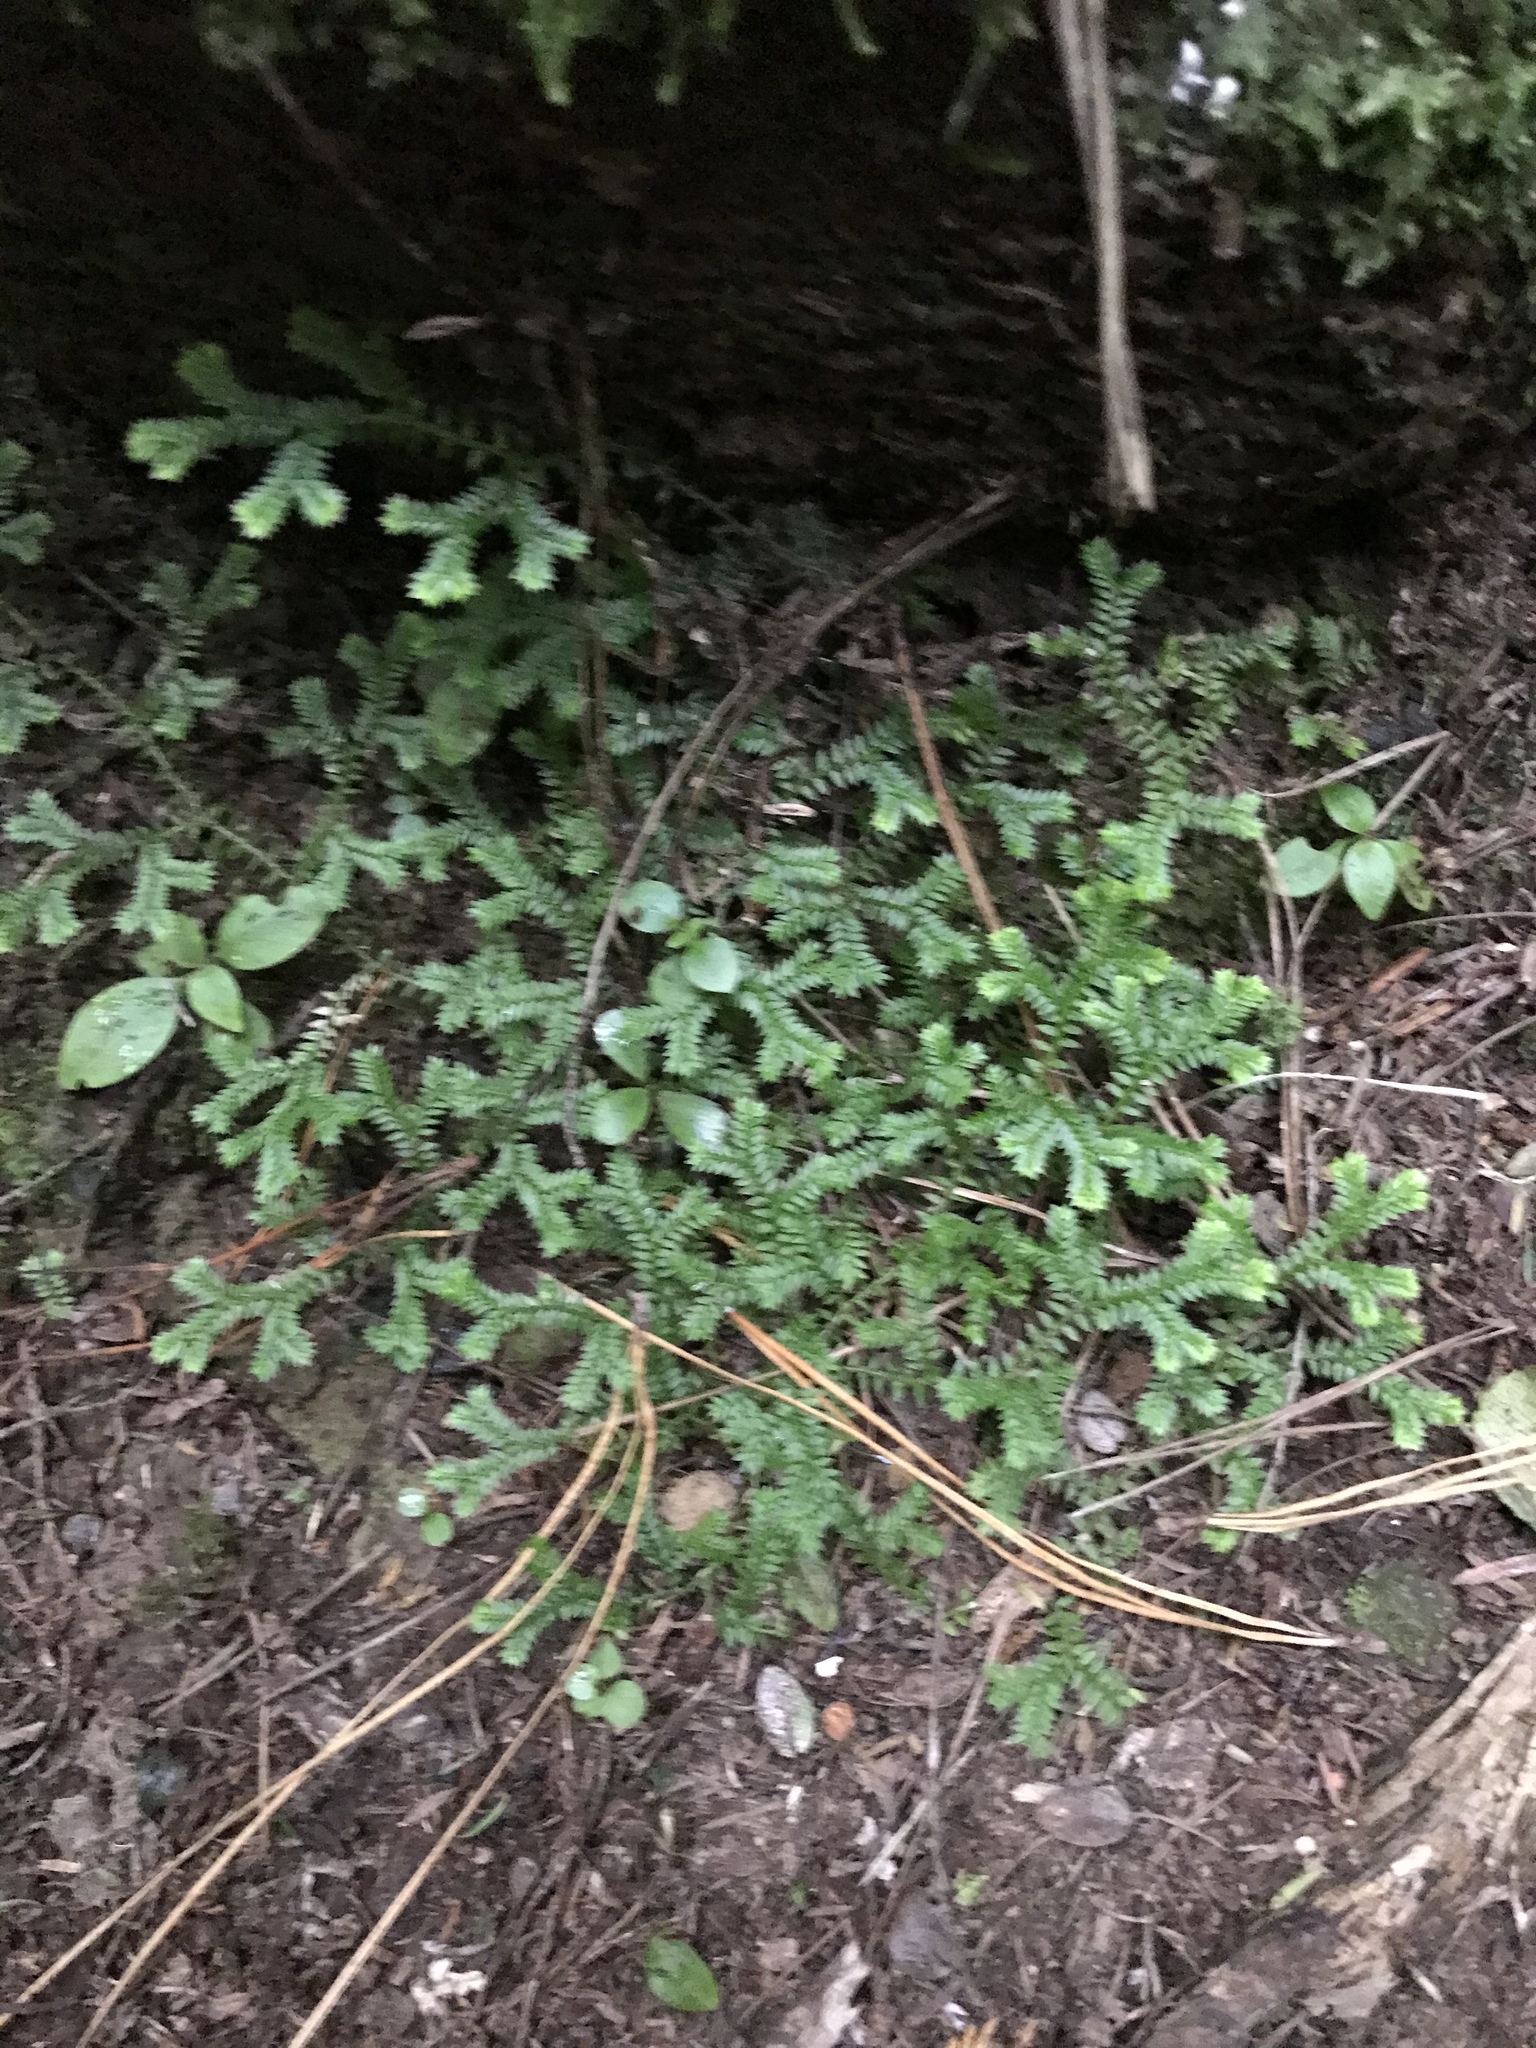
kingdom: Plantae
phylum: Tracheophyta
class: Lycopodiopsida
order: Selaginellales
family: Selaginellaceae
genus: Selaginella
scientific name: Selaginella kraussiana
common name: Krauss' spikemoss
